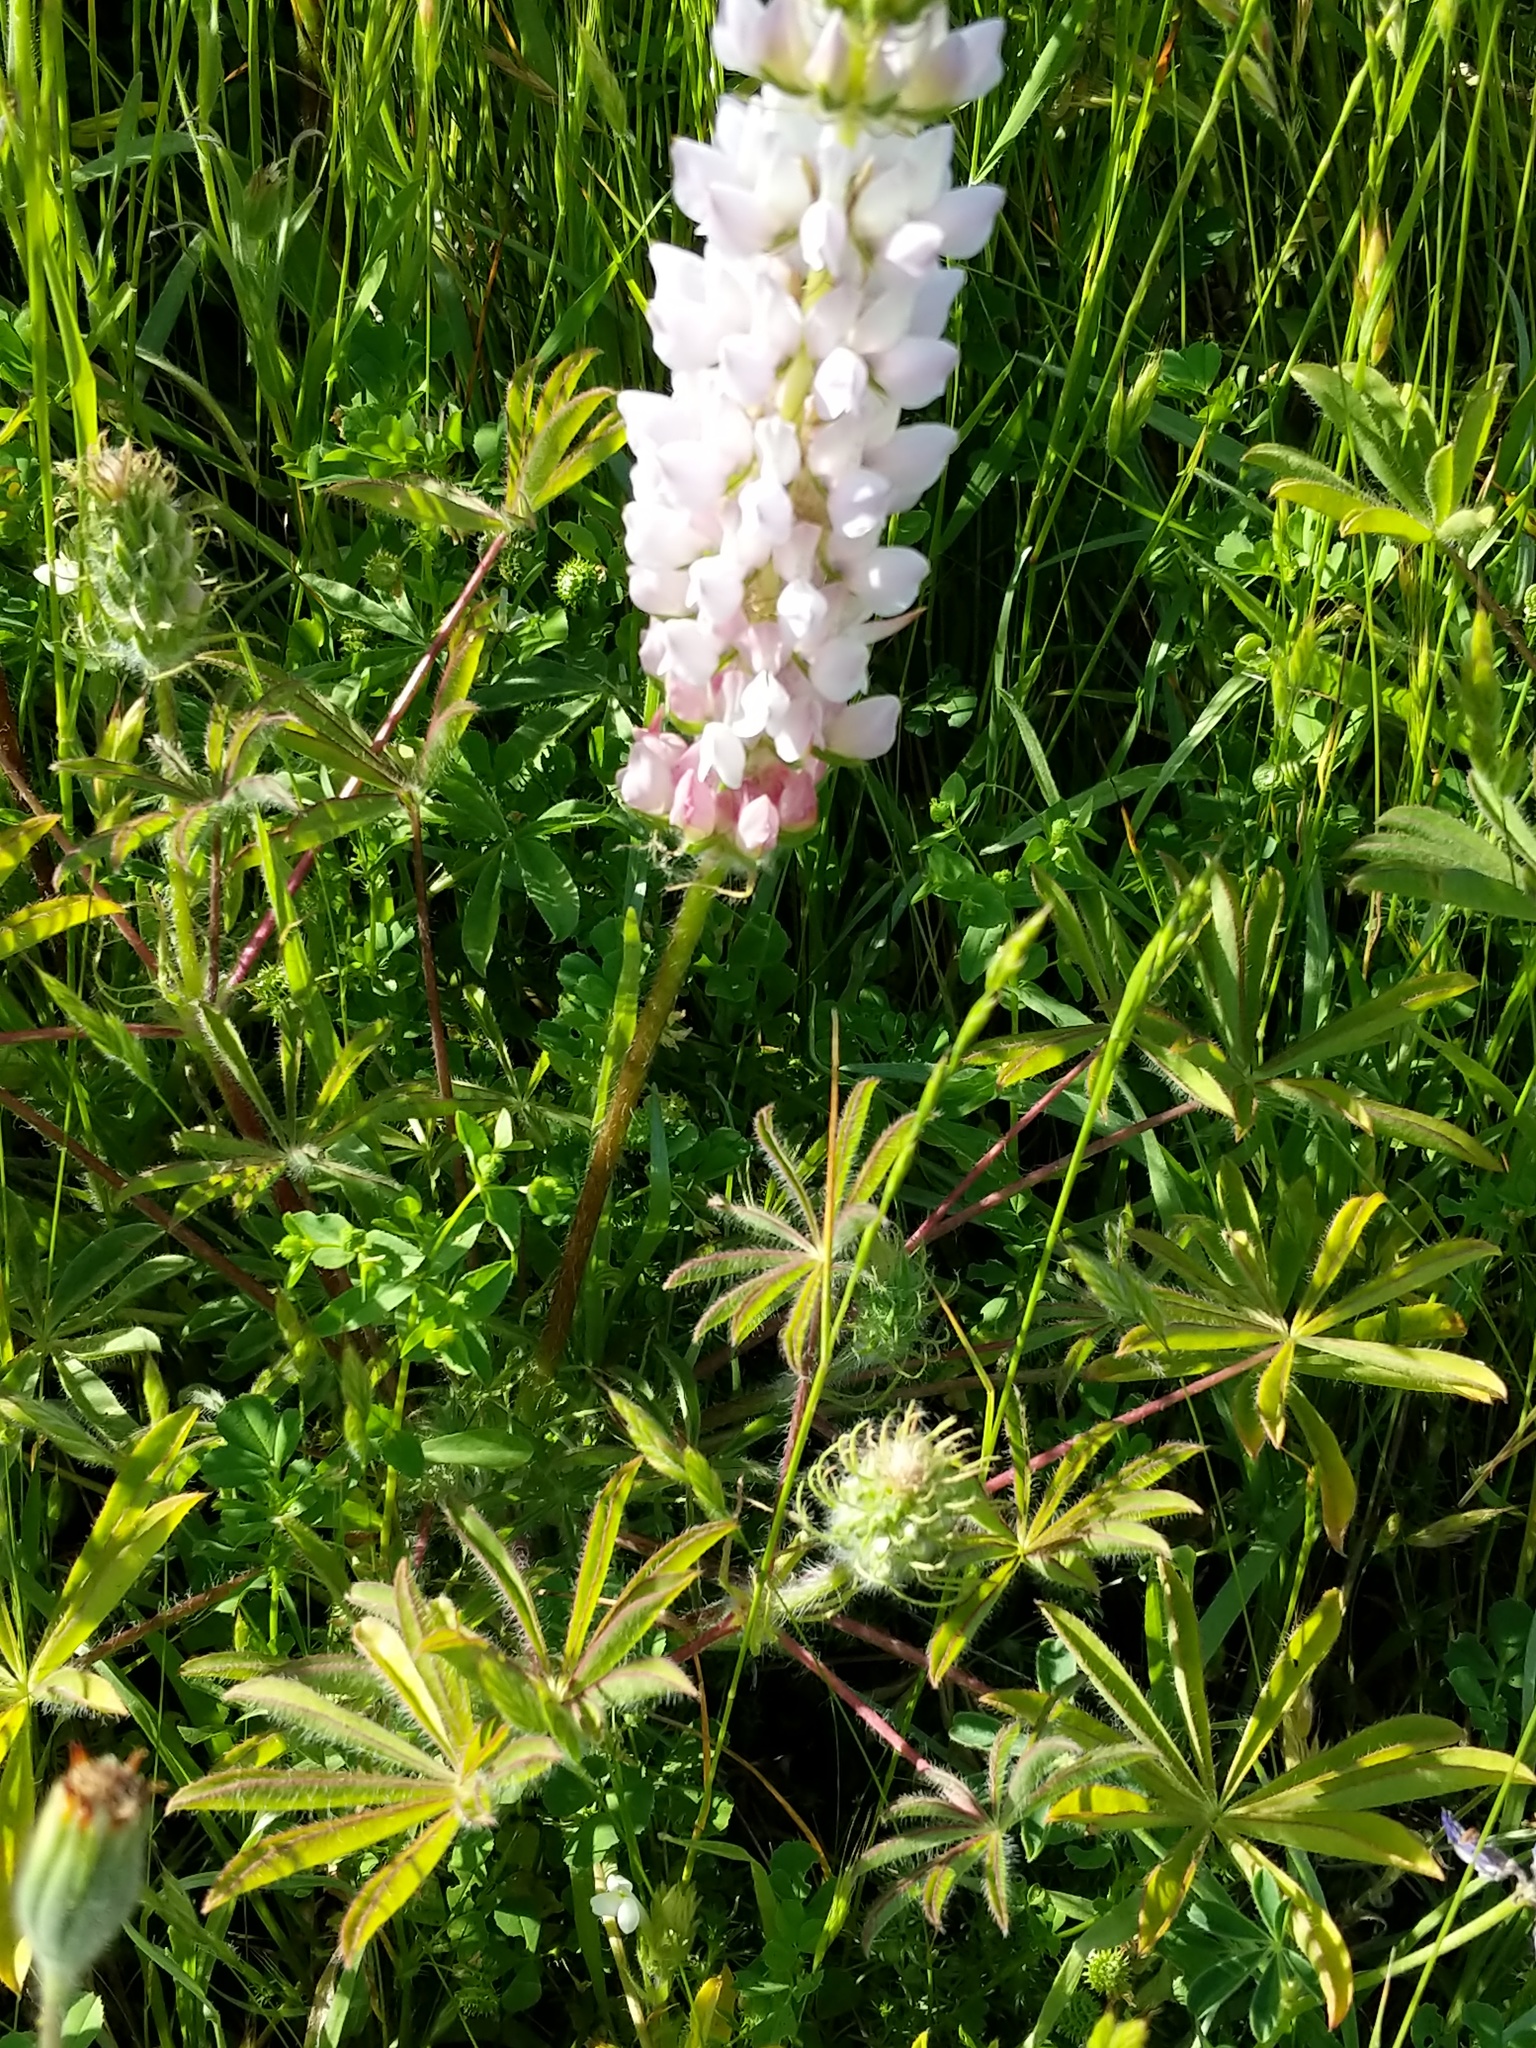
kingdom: Plantae
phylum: Tracheophyta
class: Magnoliopsida
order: Fabales
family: Fabaceae
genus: Lupinus
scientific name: Lupinus microcarpus
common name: Chick lupine
